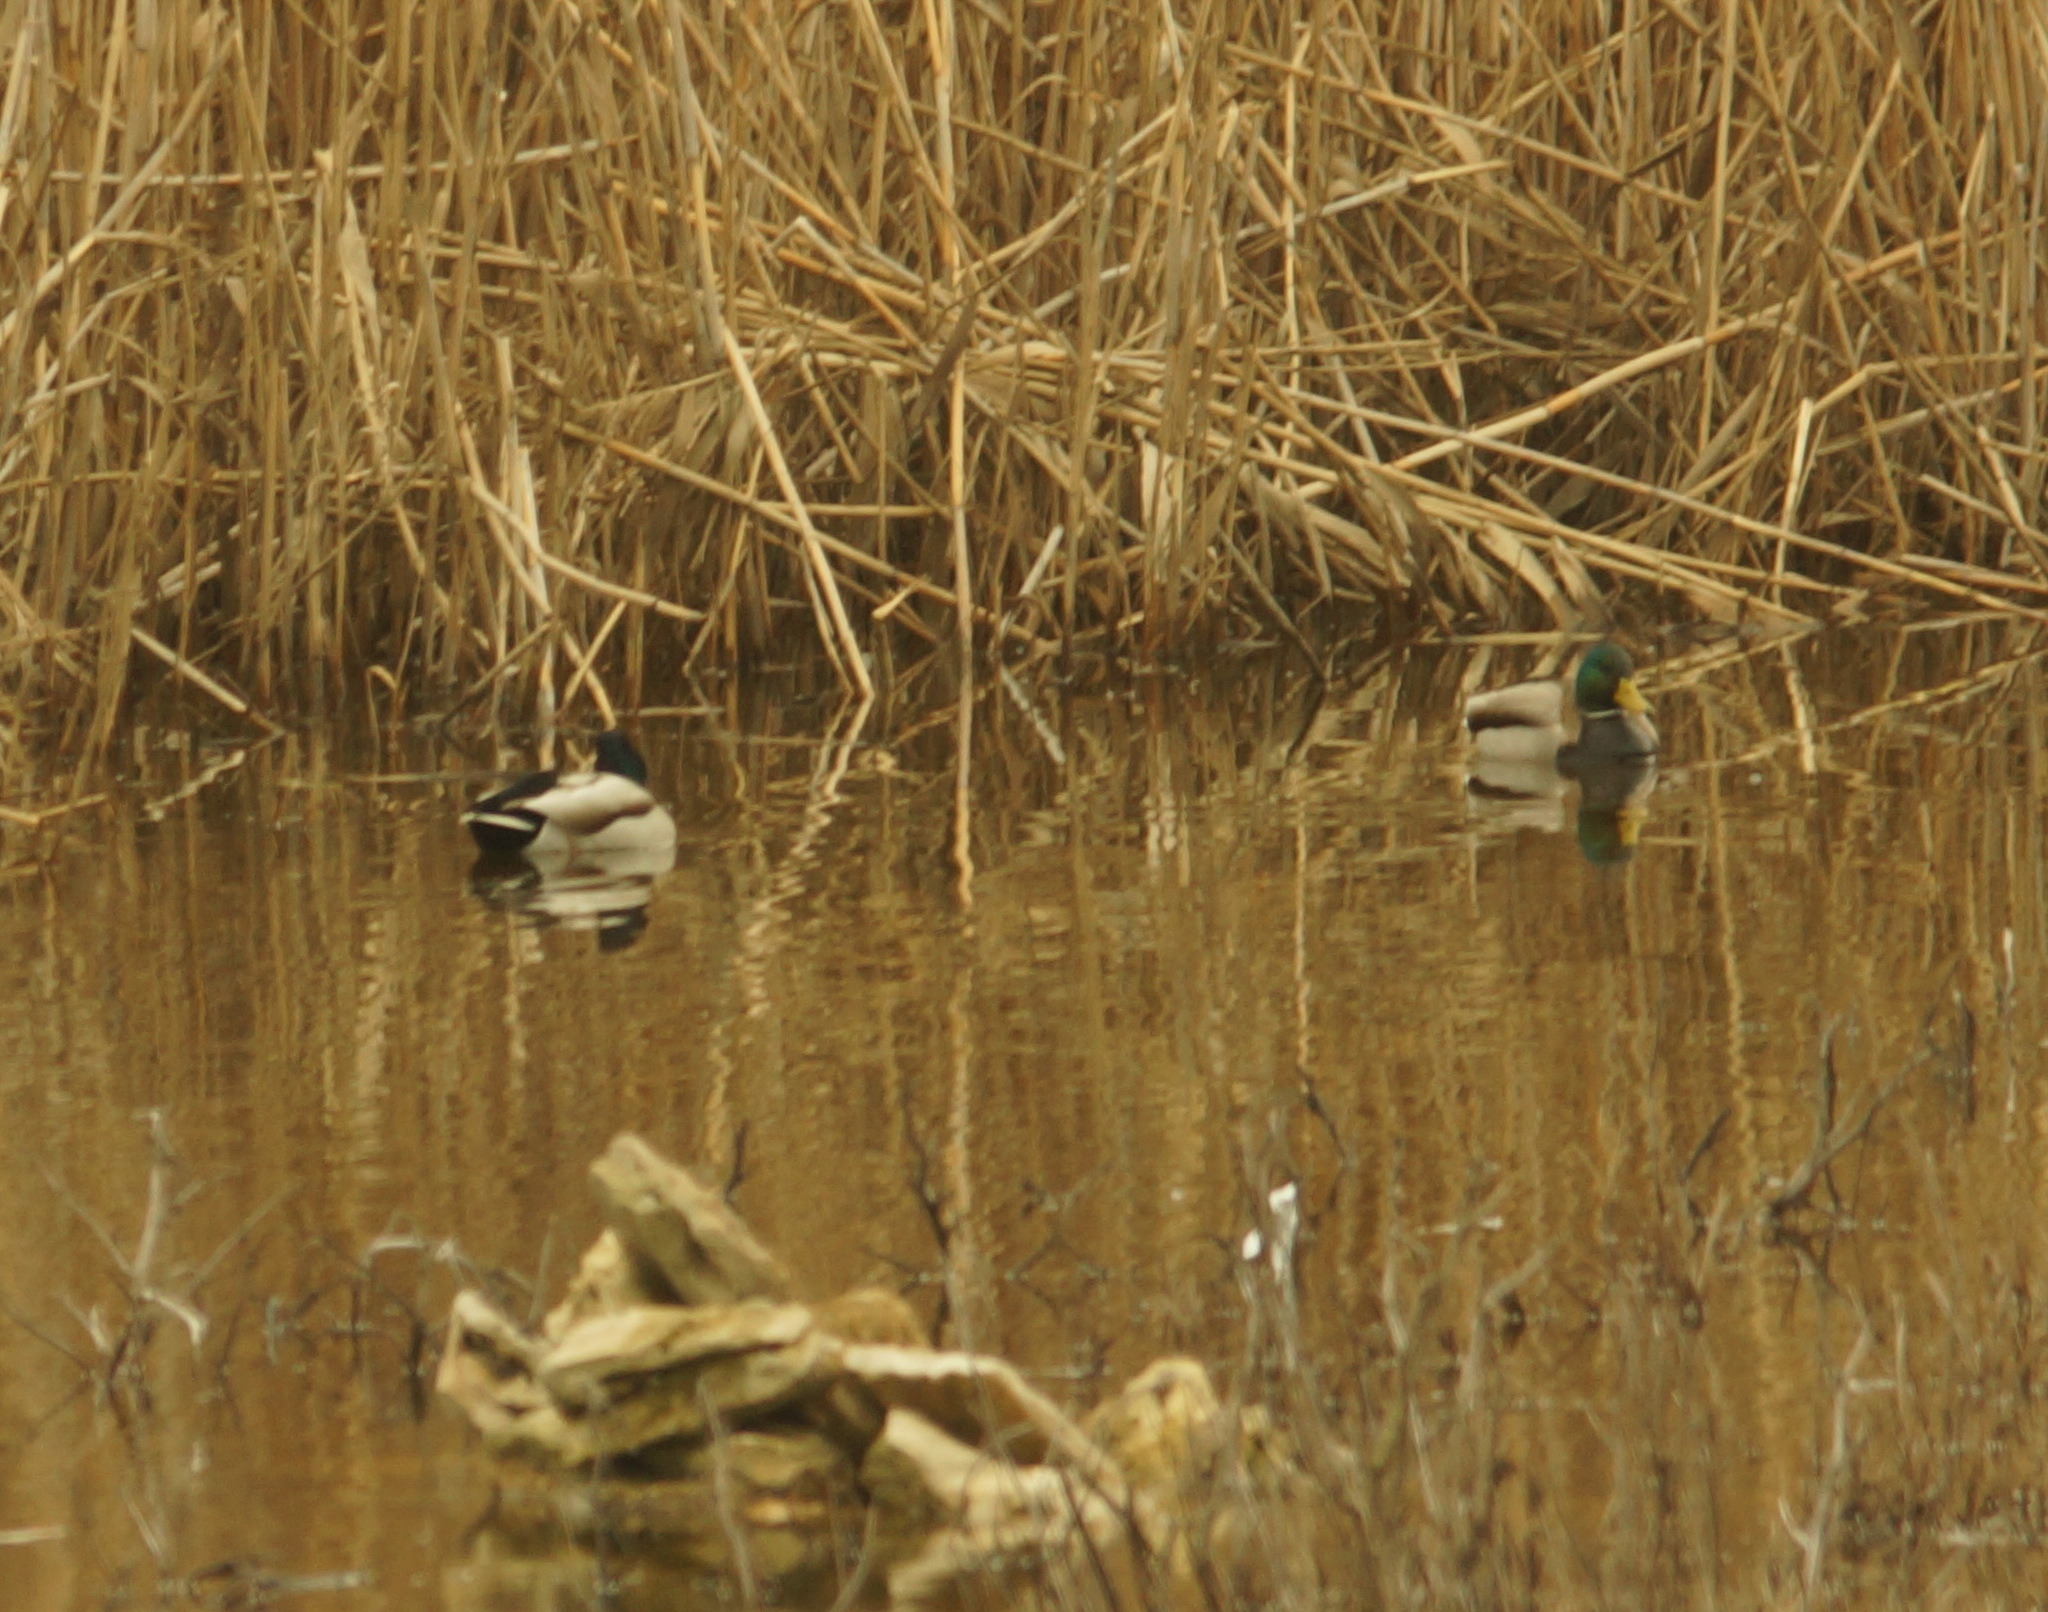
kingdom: Animalia
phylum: Chordata
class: Aves
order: Anseriformes
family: Anatidae
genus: Anas
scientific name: Anas platyrhynchos
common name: Mallard
